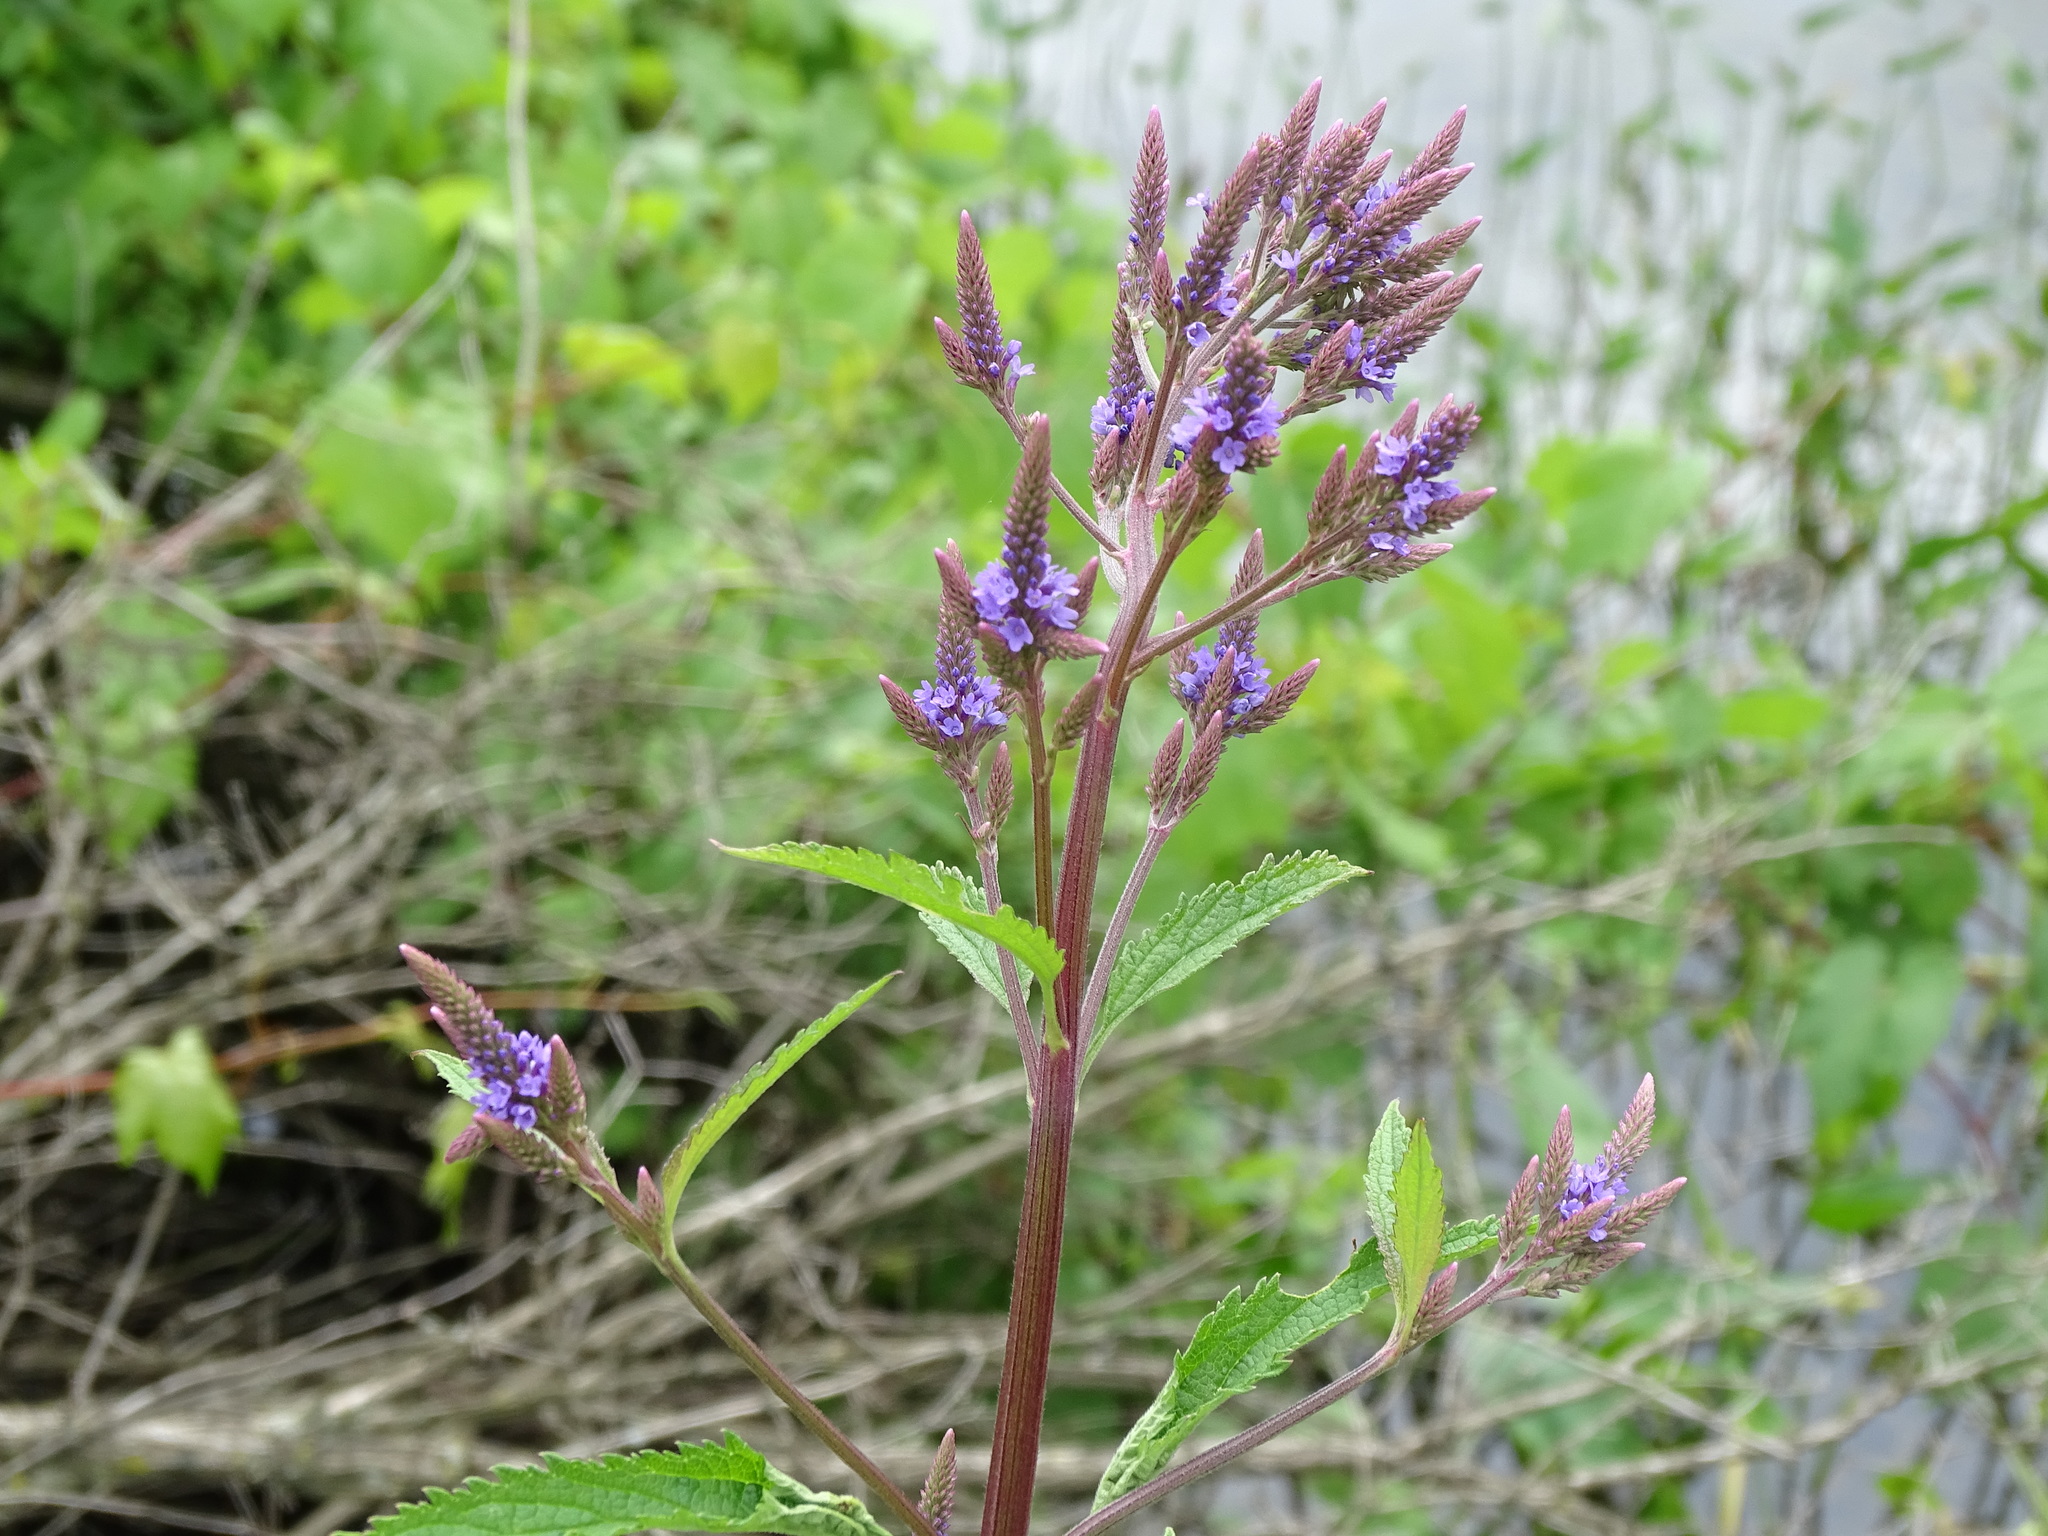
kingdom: Plantae
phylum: Tracheophyta
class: Magnoliopsida
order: Lamiales
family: Verbenaceae
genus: Verbena
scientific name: Verbena hastata
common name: American blue vervain
